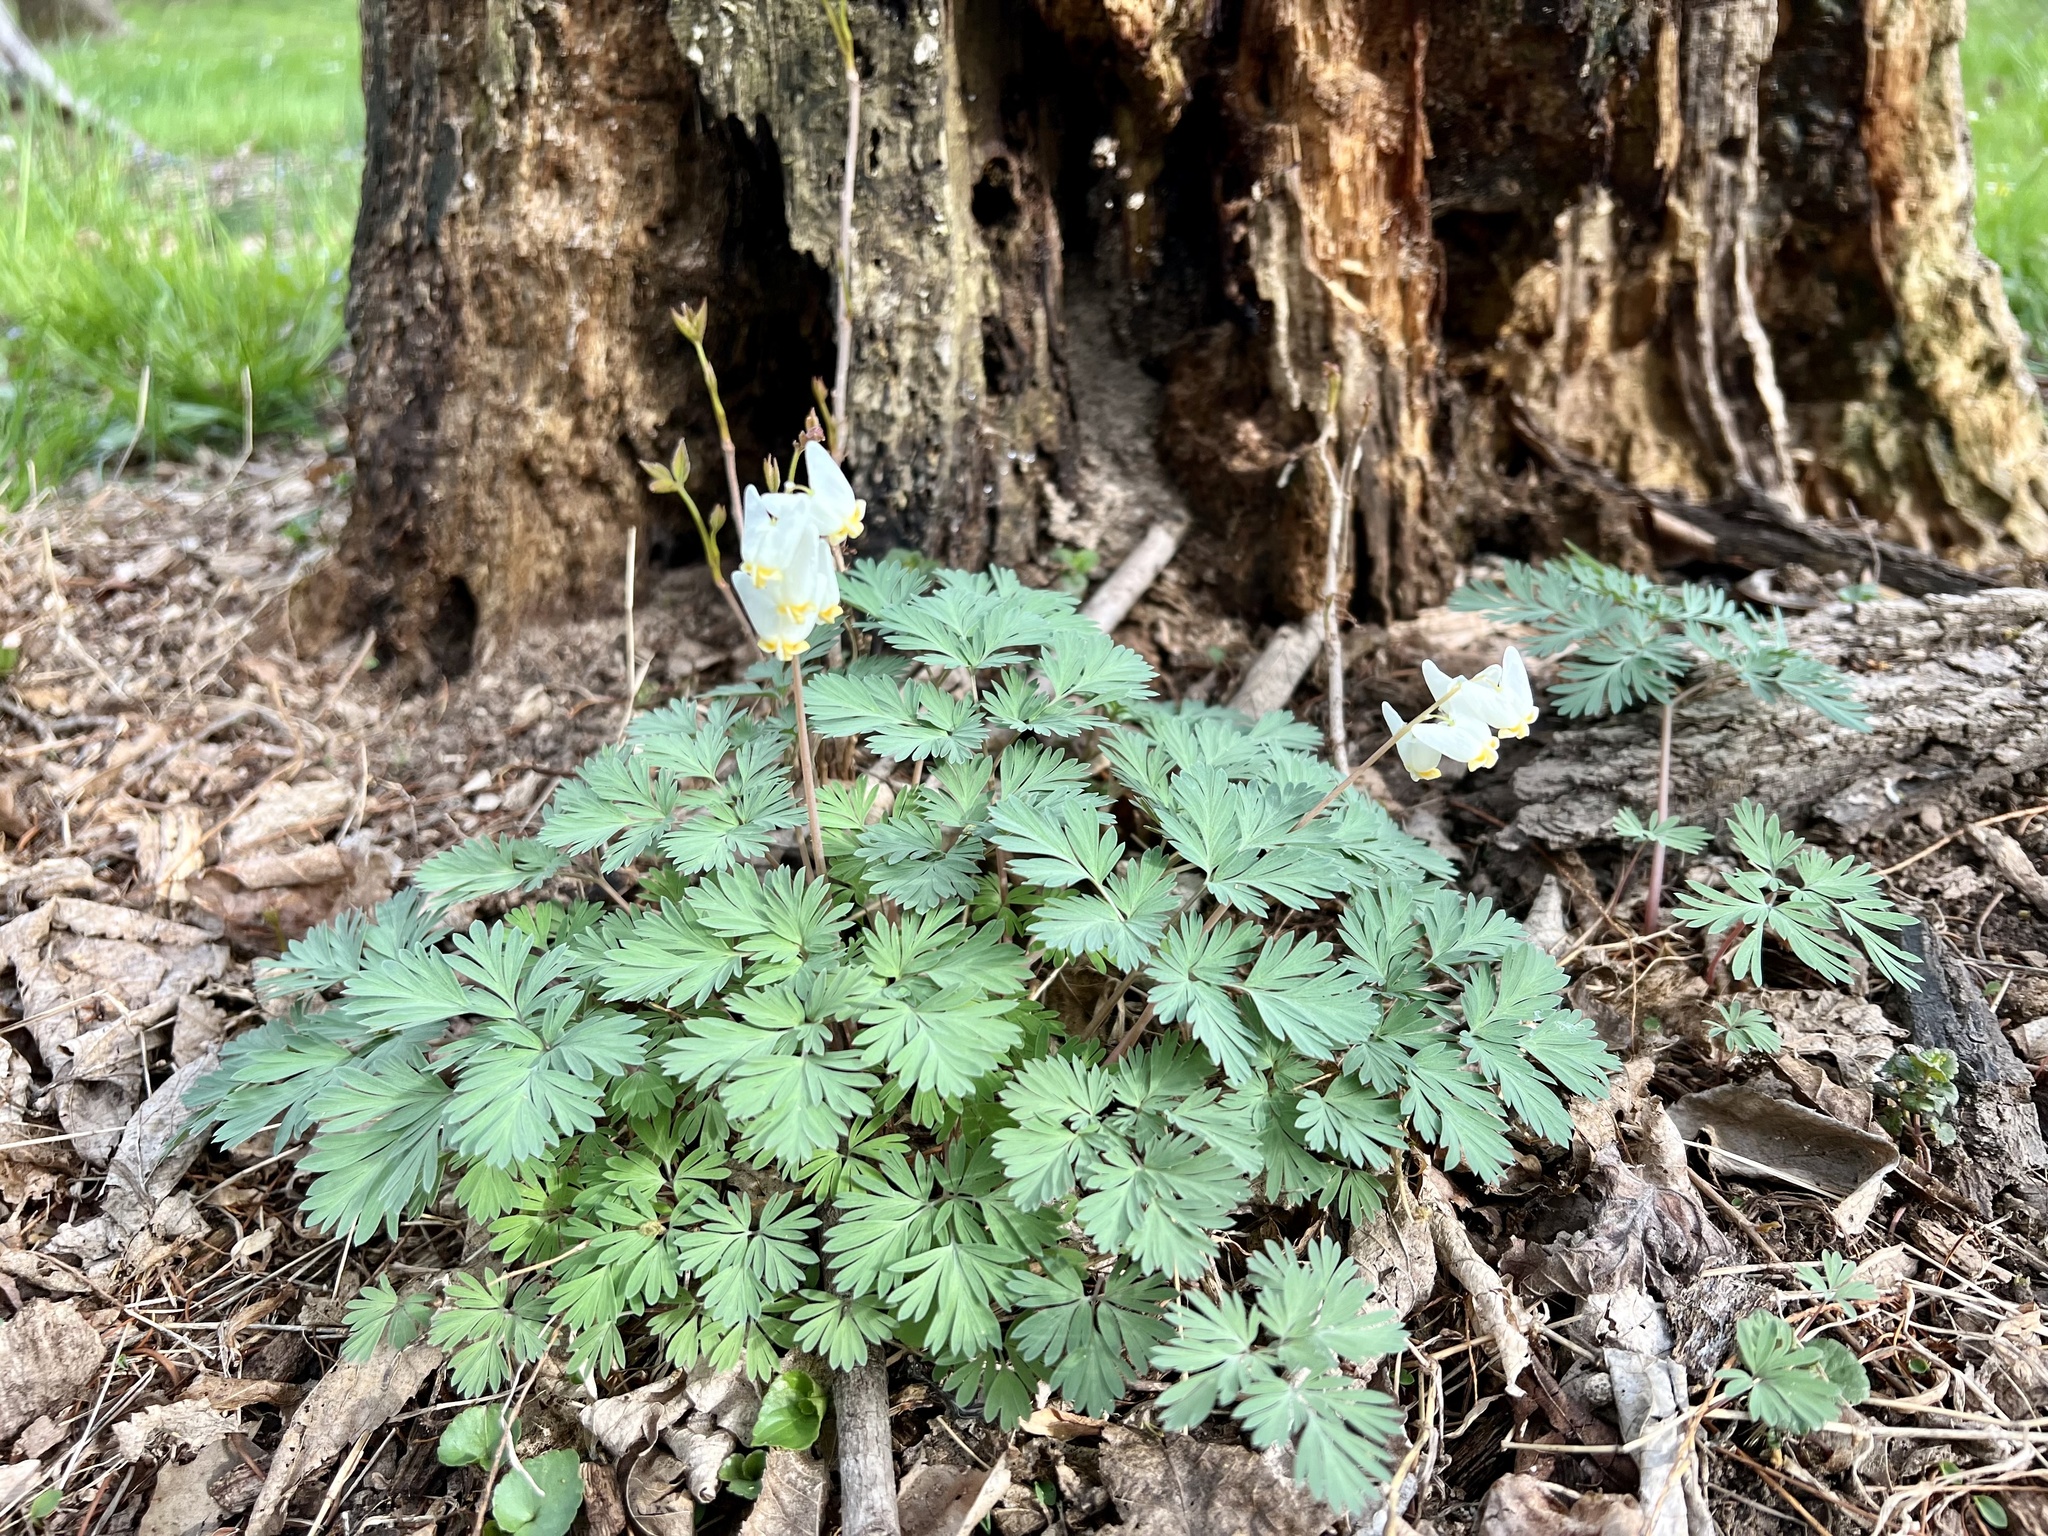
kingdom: Plantae
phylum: Tracheophyta
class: Magnoliopsida
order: Ranunculales
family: Papaveraceae
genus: Dicentra
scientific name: Dicentra cucullaria
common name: Dutchman's breeches
